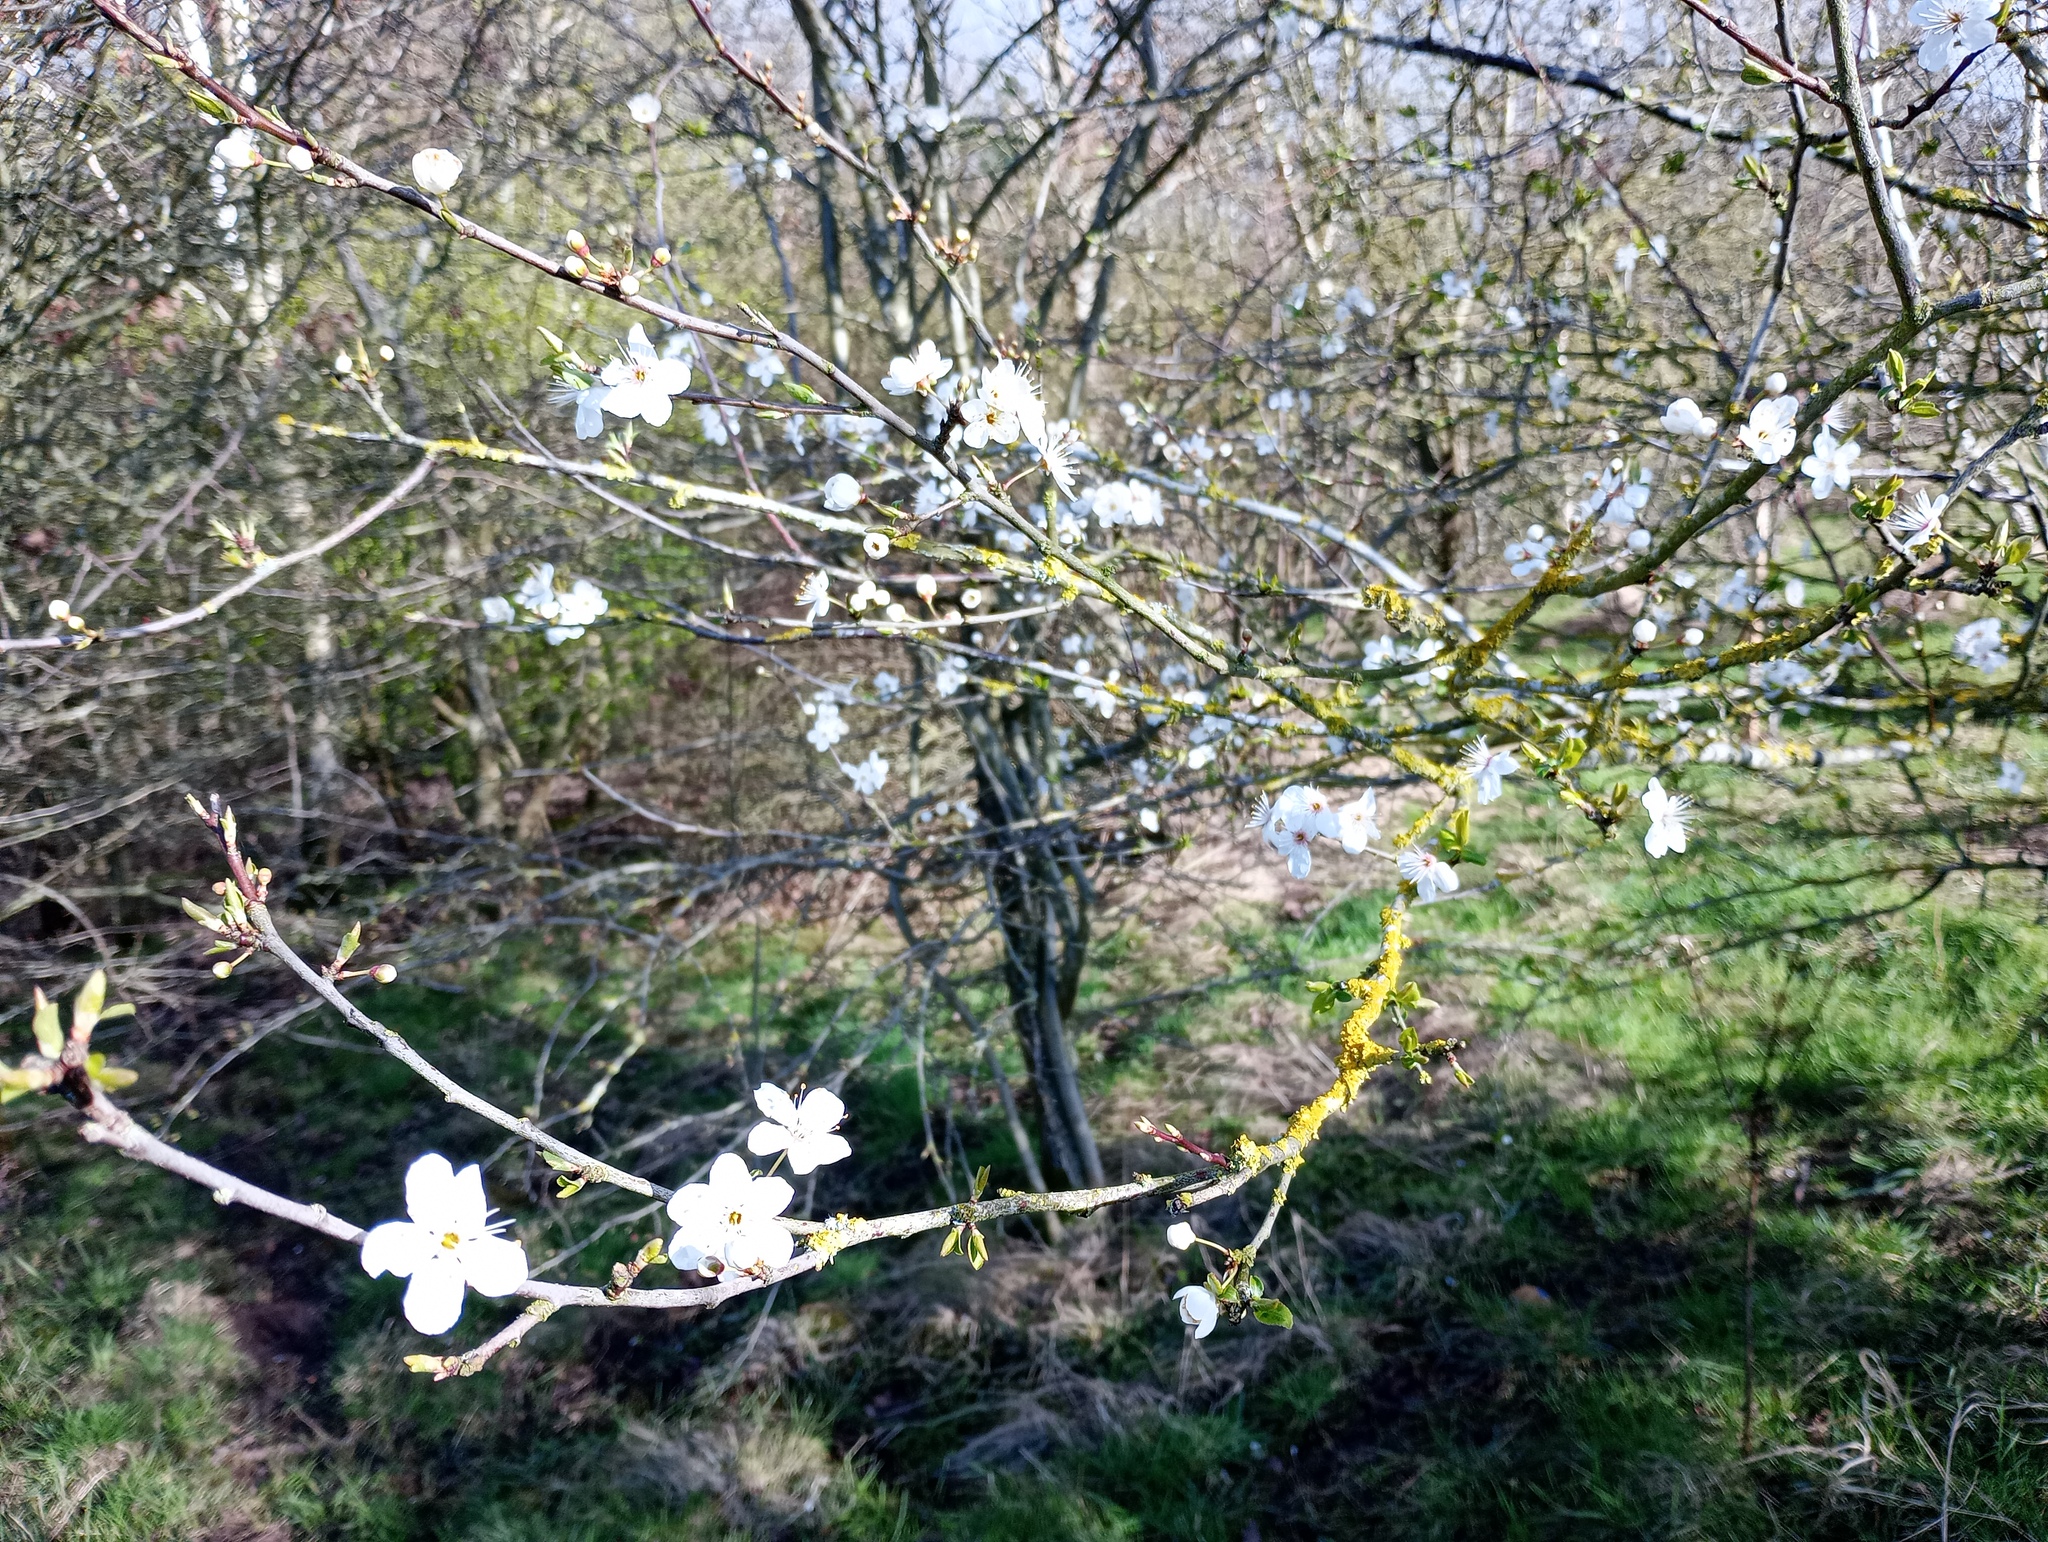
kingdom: Plantae
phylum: Tracheophyta
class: Magnoliopsida
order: Rosales
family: Rosaceae
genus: Prunus
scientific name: Prunus cerasifera
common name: Cherry plum
